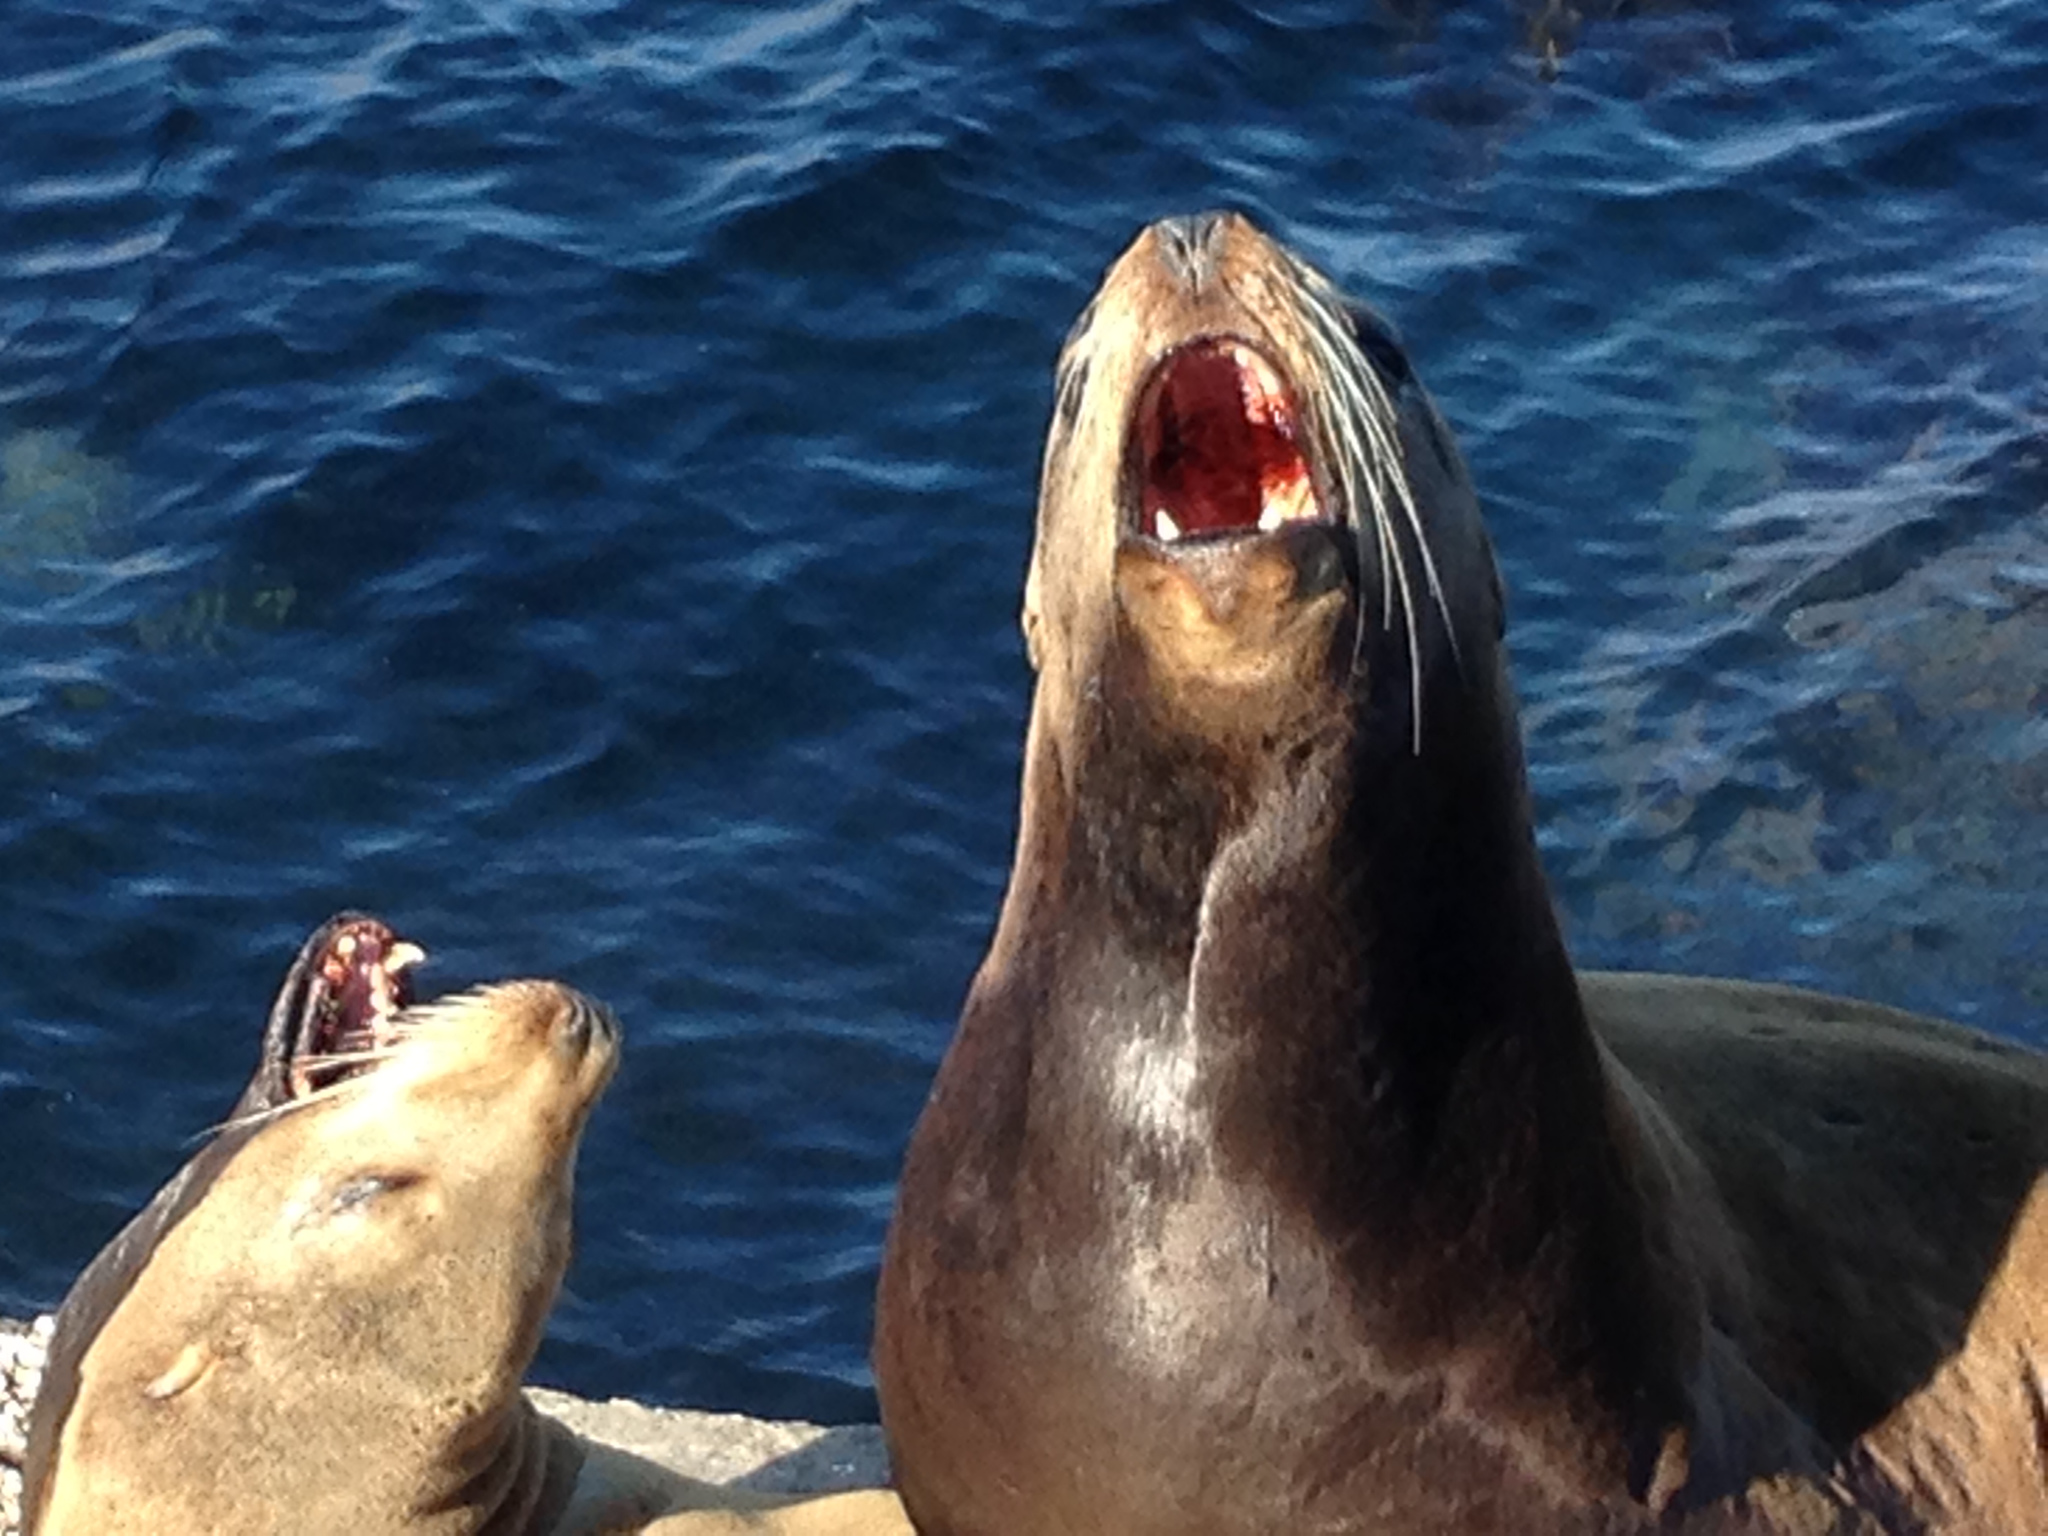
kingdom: Animalia
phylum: Chordata
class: Mammalia
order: Carnivora
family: Otariidae
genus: Zalophus
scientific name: Zalophus californianus
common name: California sea lion
